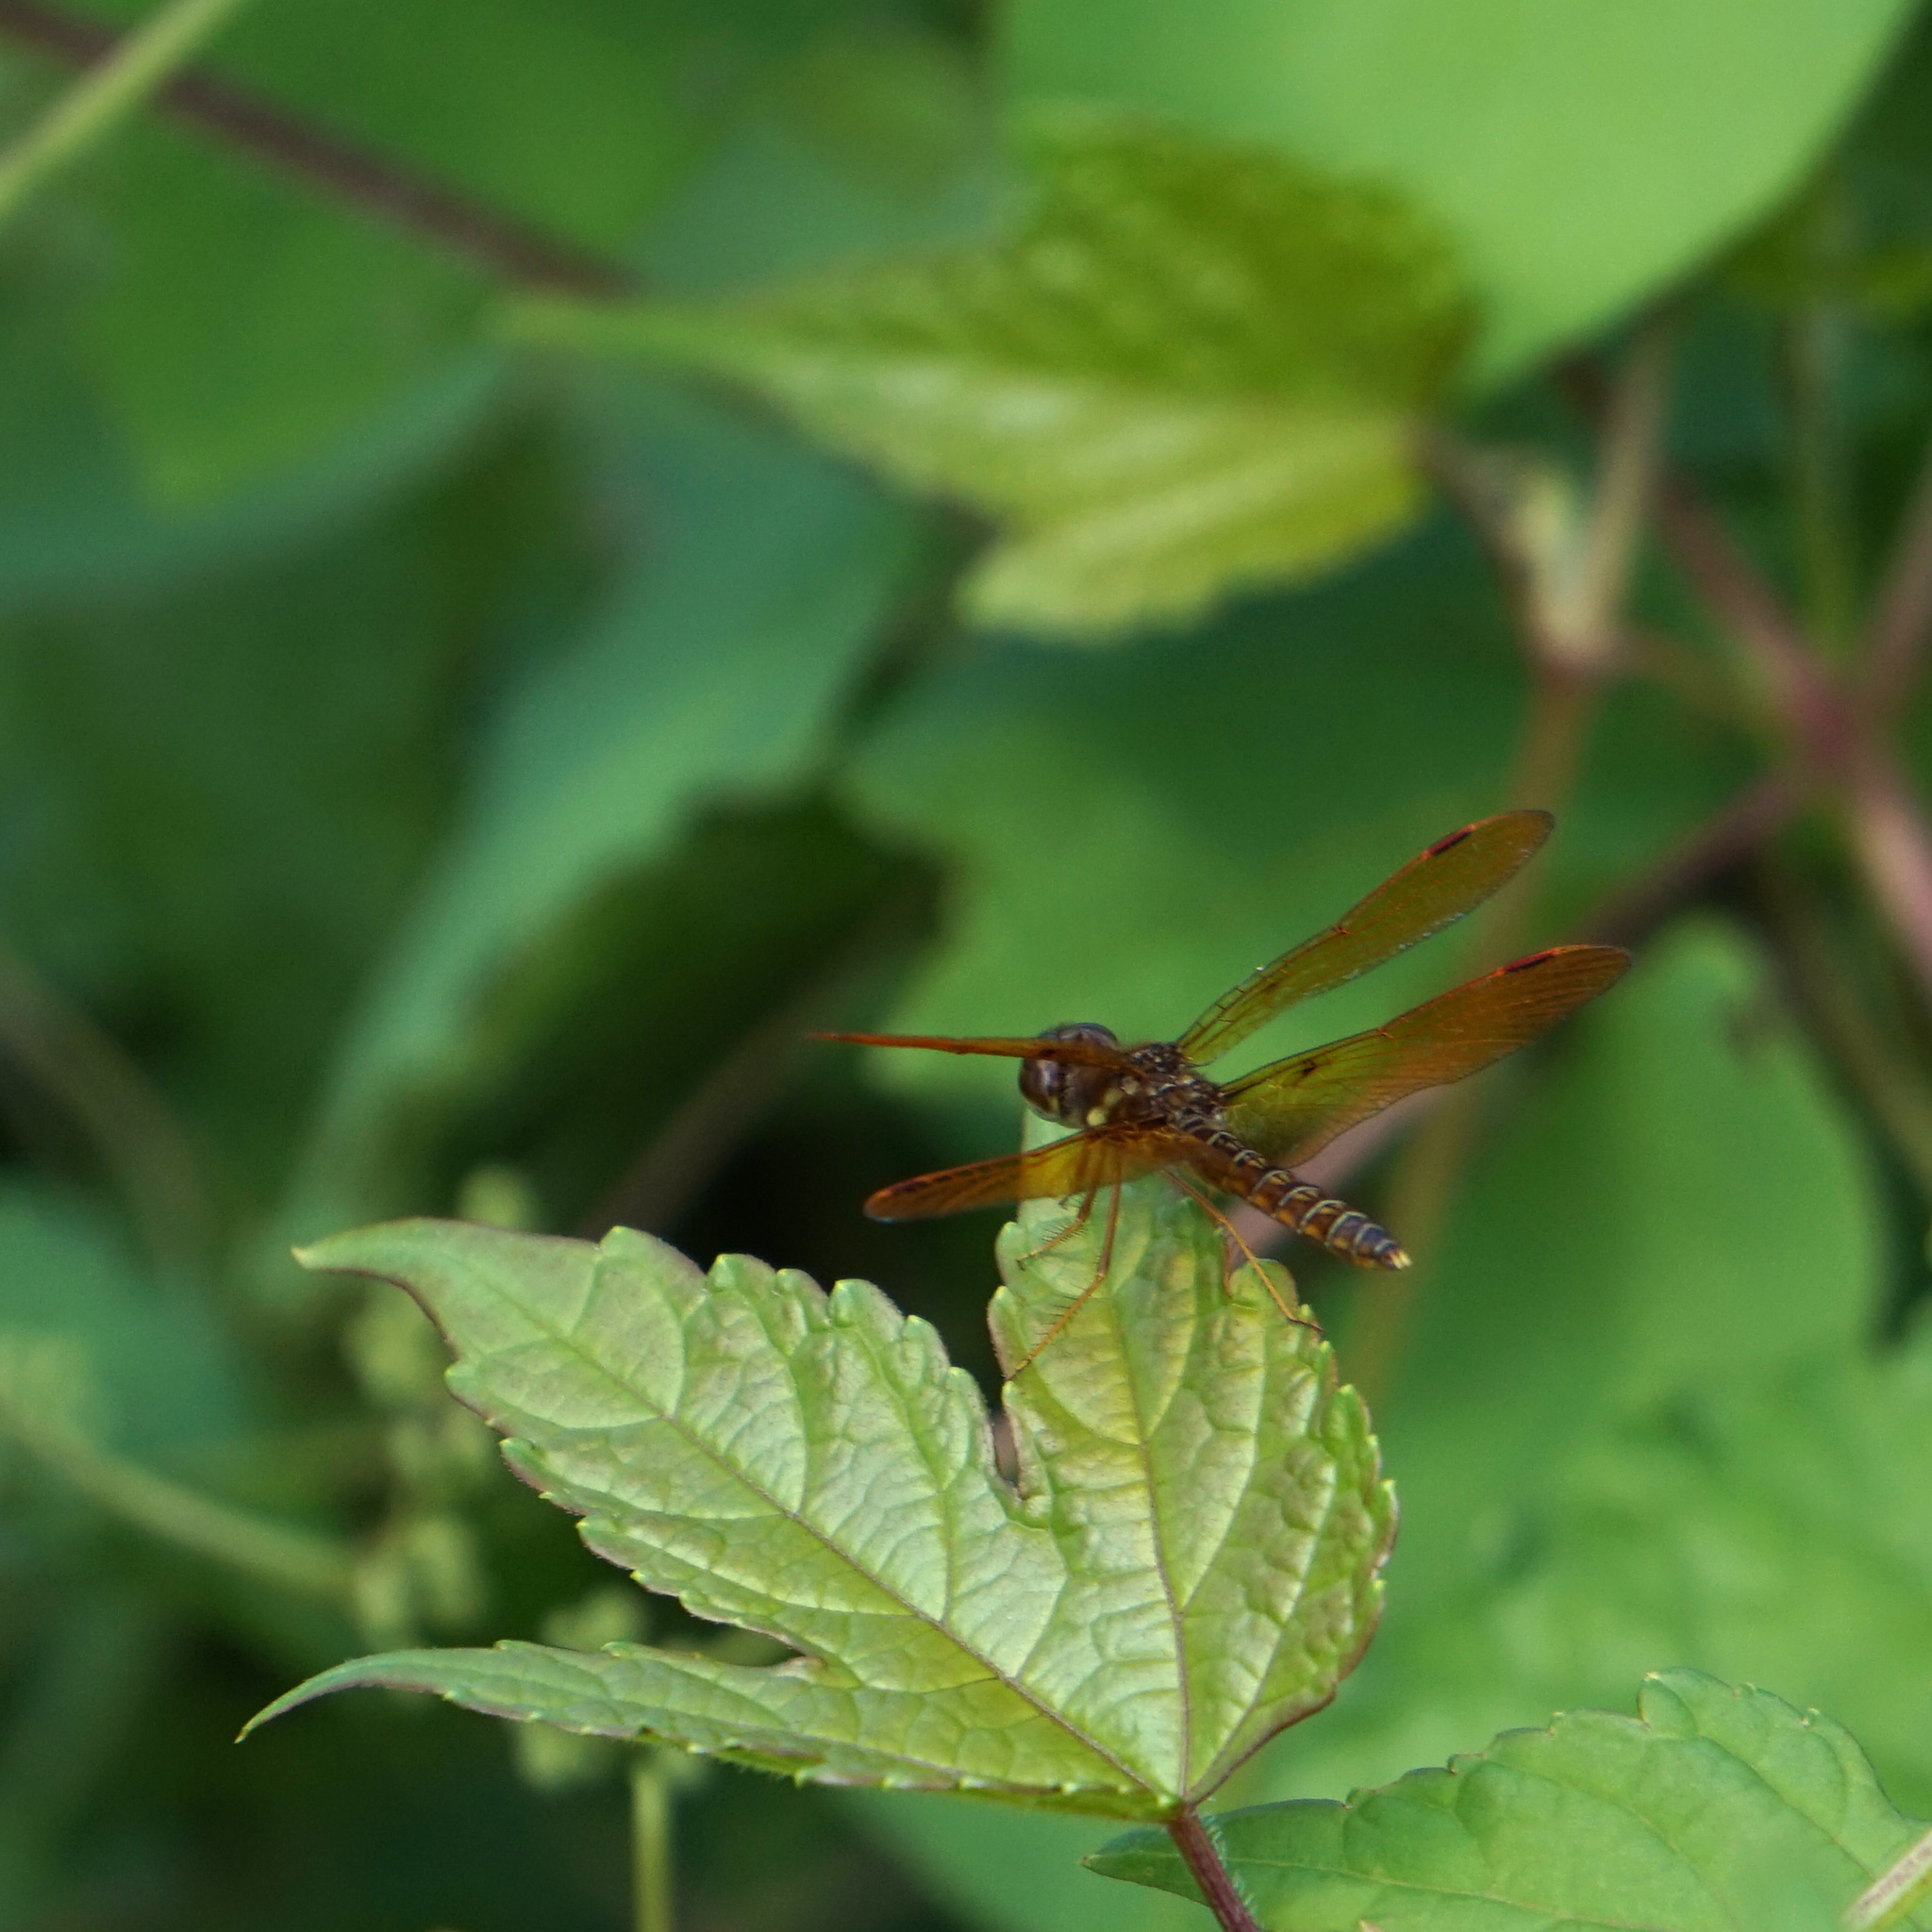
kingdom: Animalia
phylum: Arthropoda
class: Insecta
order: Odonata
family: Libellulidae
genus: Perithemis
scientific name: Perithemis tenera
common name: Eastern amberwing
